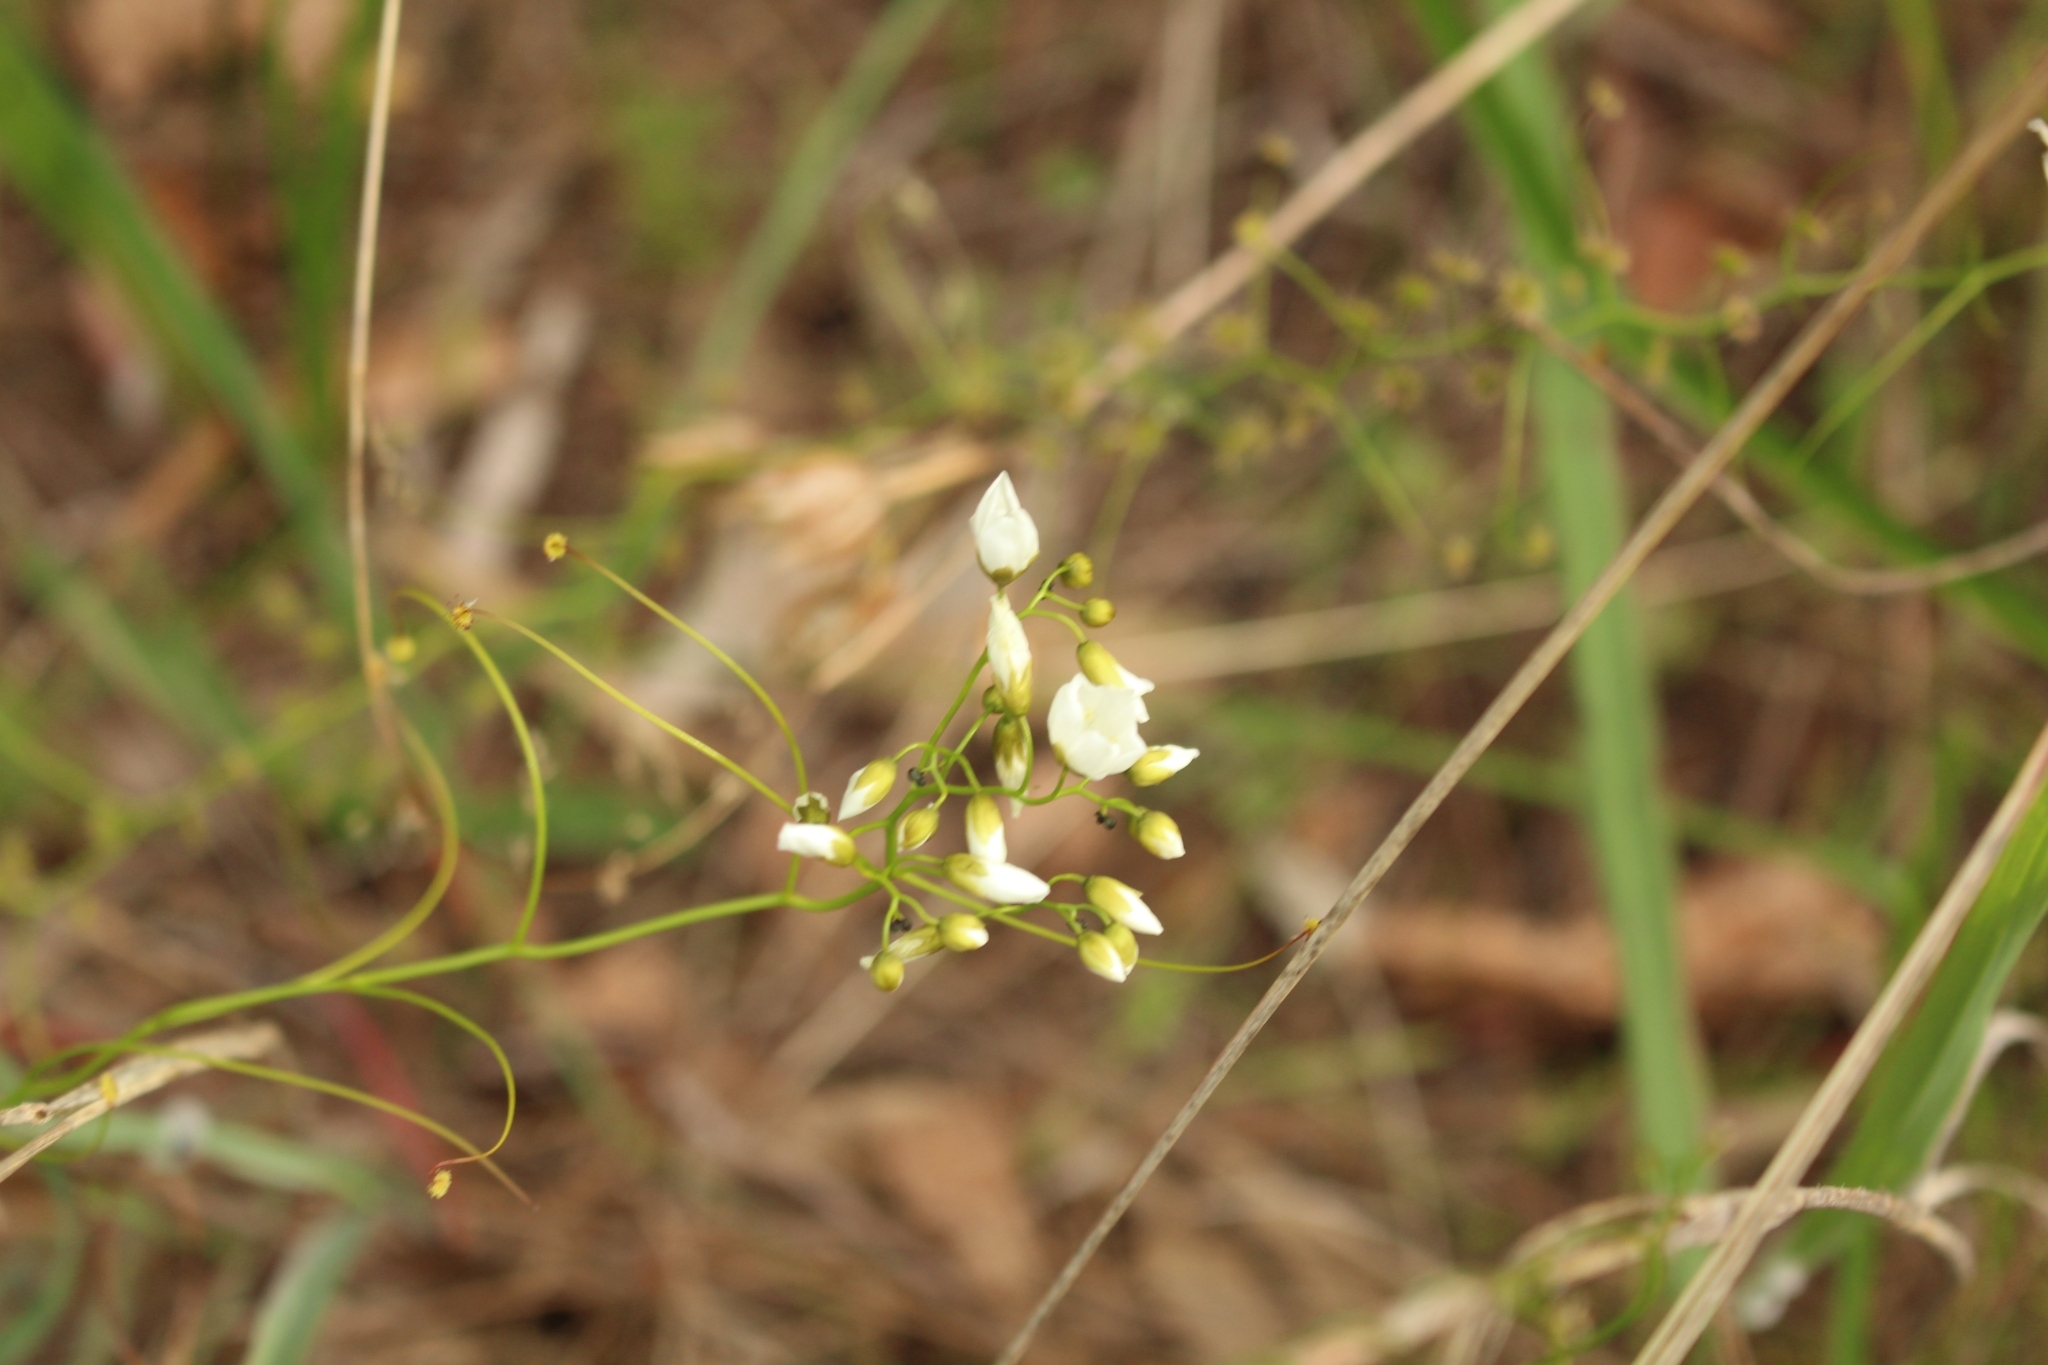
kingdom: Plantae
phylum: Tracheophyta
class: Magnoliopsida
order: Caryophyllales
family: Droseraceae
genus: Drosera
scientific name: Drosera pallida
